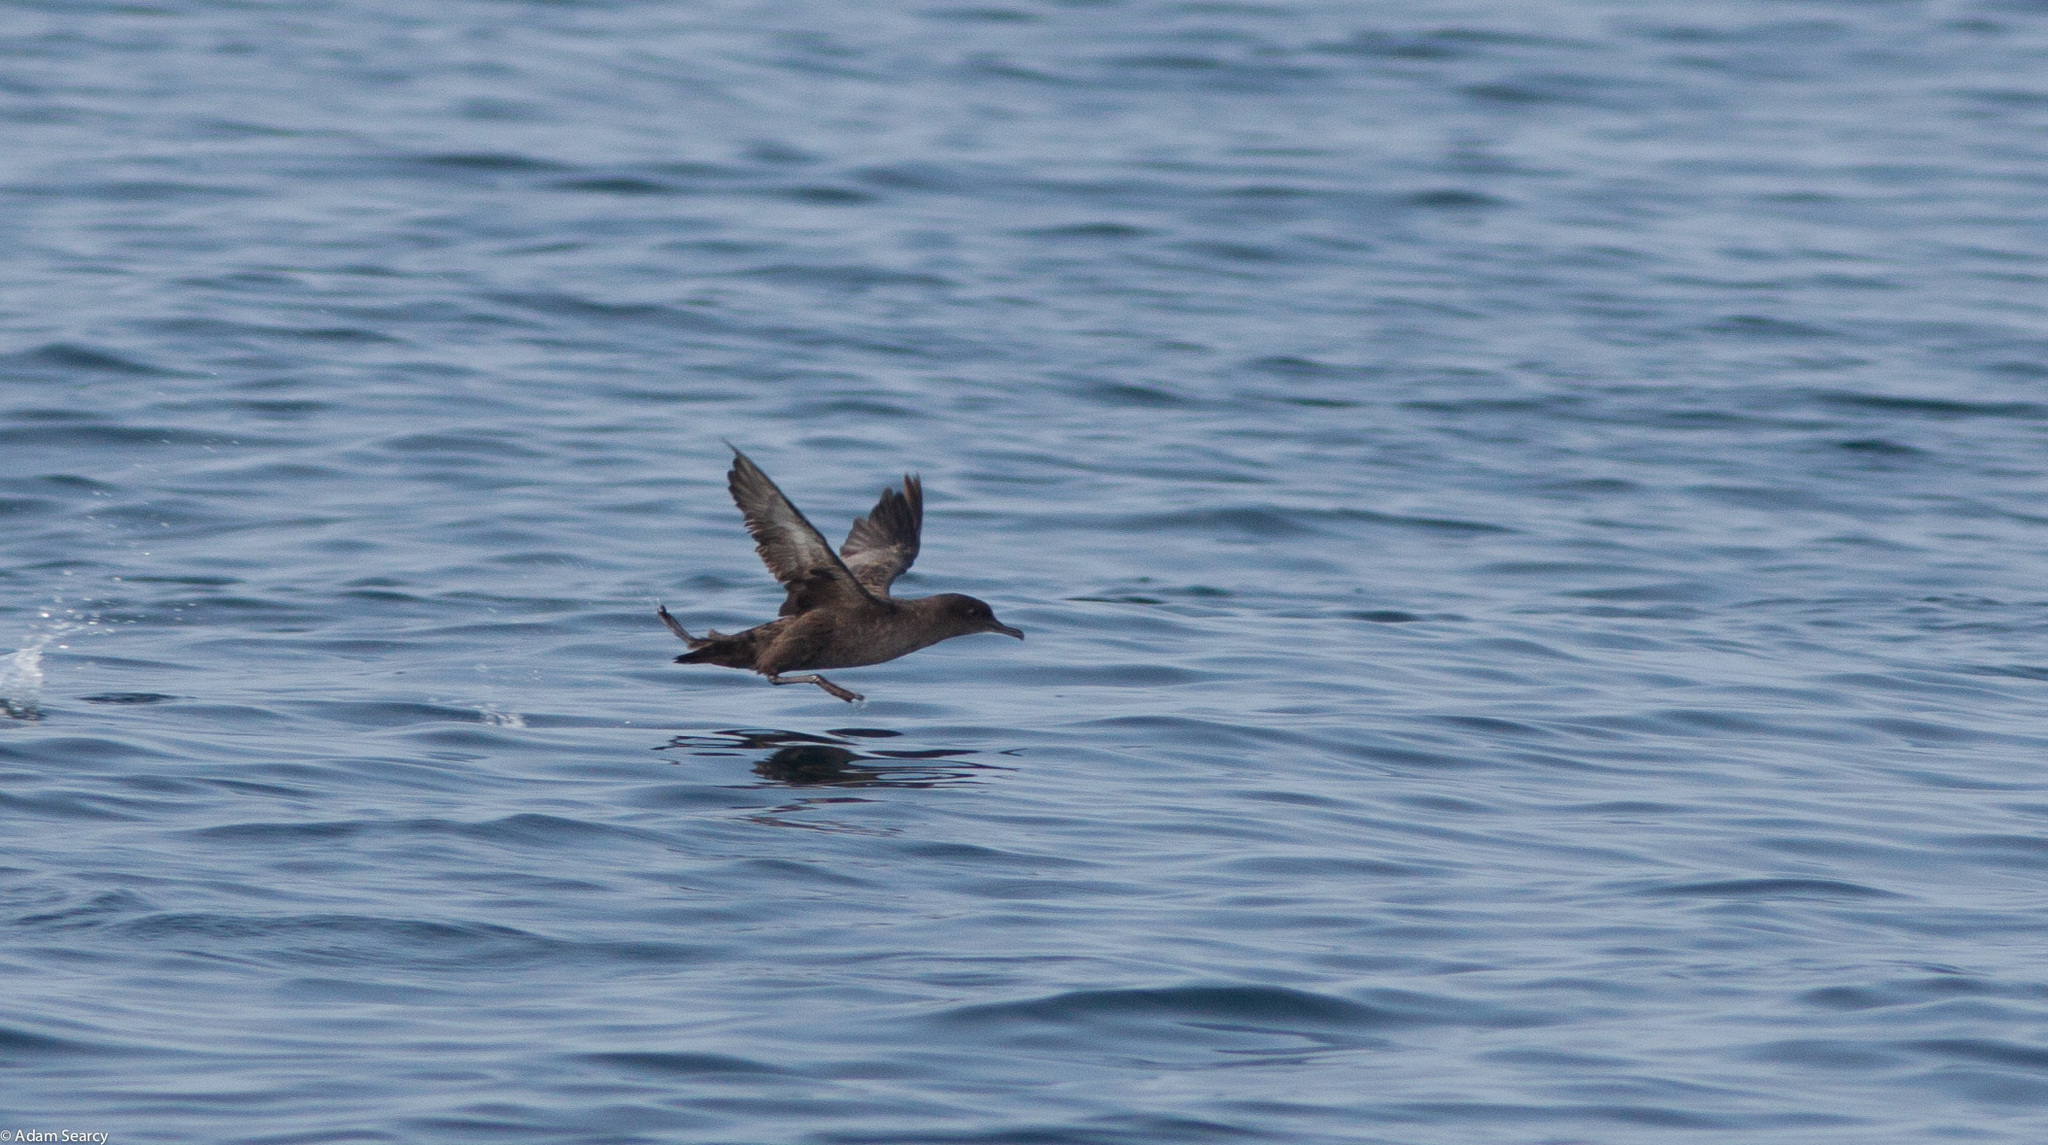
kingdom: Animalia
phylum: Chordata
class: Aves
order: Procellariiformes
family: Procellariidae
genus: Puffinus
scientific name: Puffinus griseus
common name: Sooty shearwater
